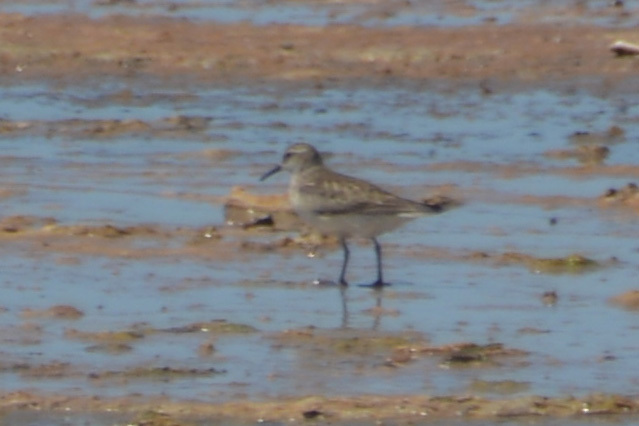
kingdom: Animalia
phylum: Chordata
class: Aves
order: Charadriiformes
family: Scolopacidae
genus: Calidris
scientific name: Calidris bairdii
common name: Baird's sandpiper
